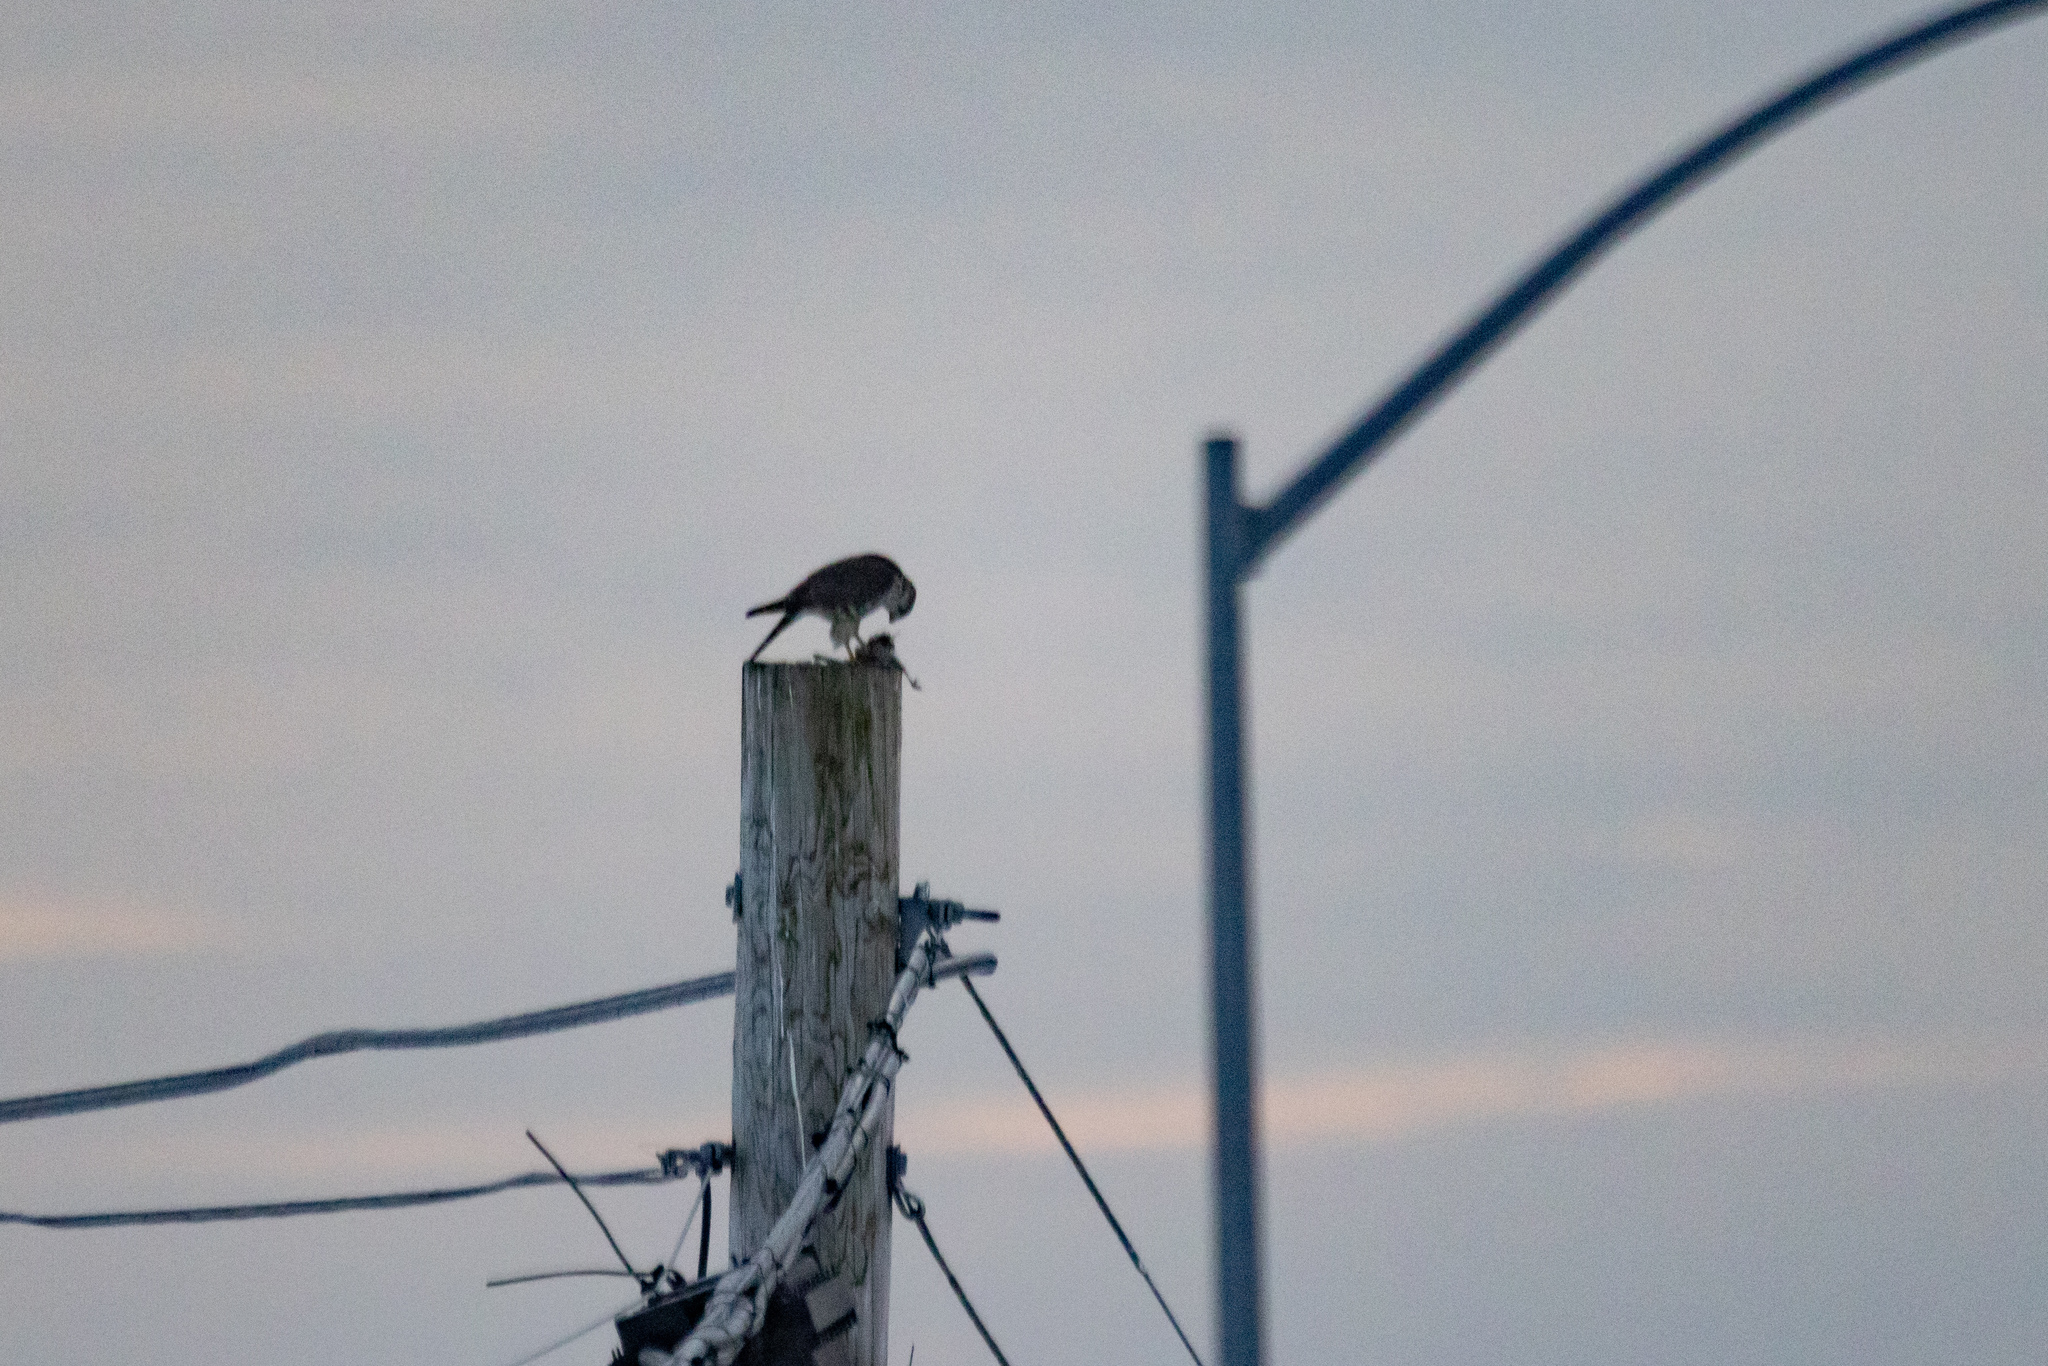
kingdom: Animalia
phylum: Chordata
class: Aves
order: Falconiformes
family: Falconidae
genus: Falco
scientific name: Falco columbarius
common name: Merlin
